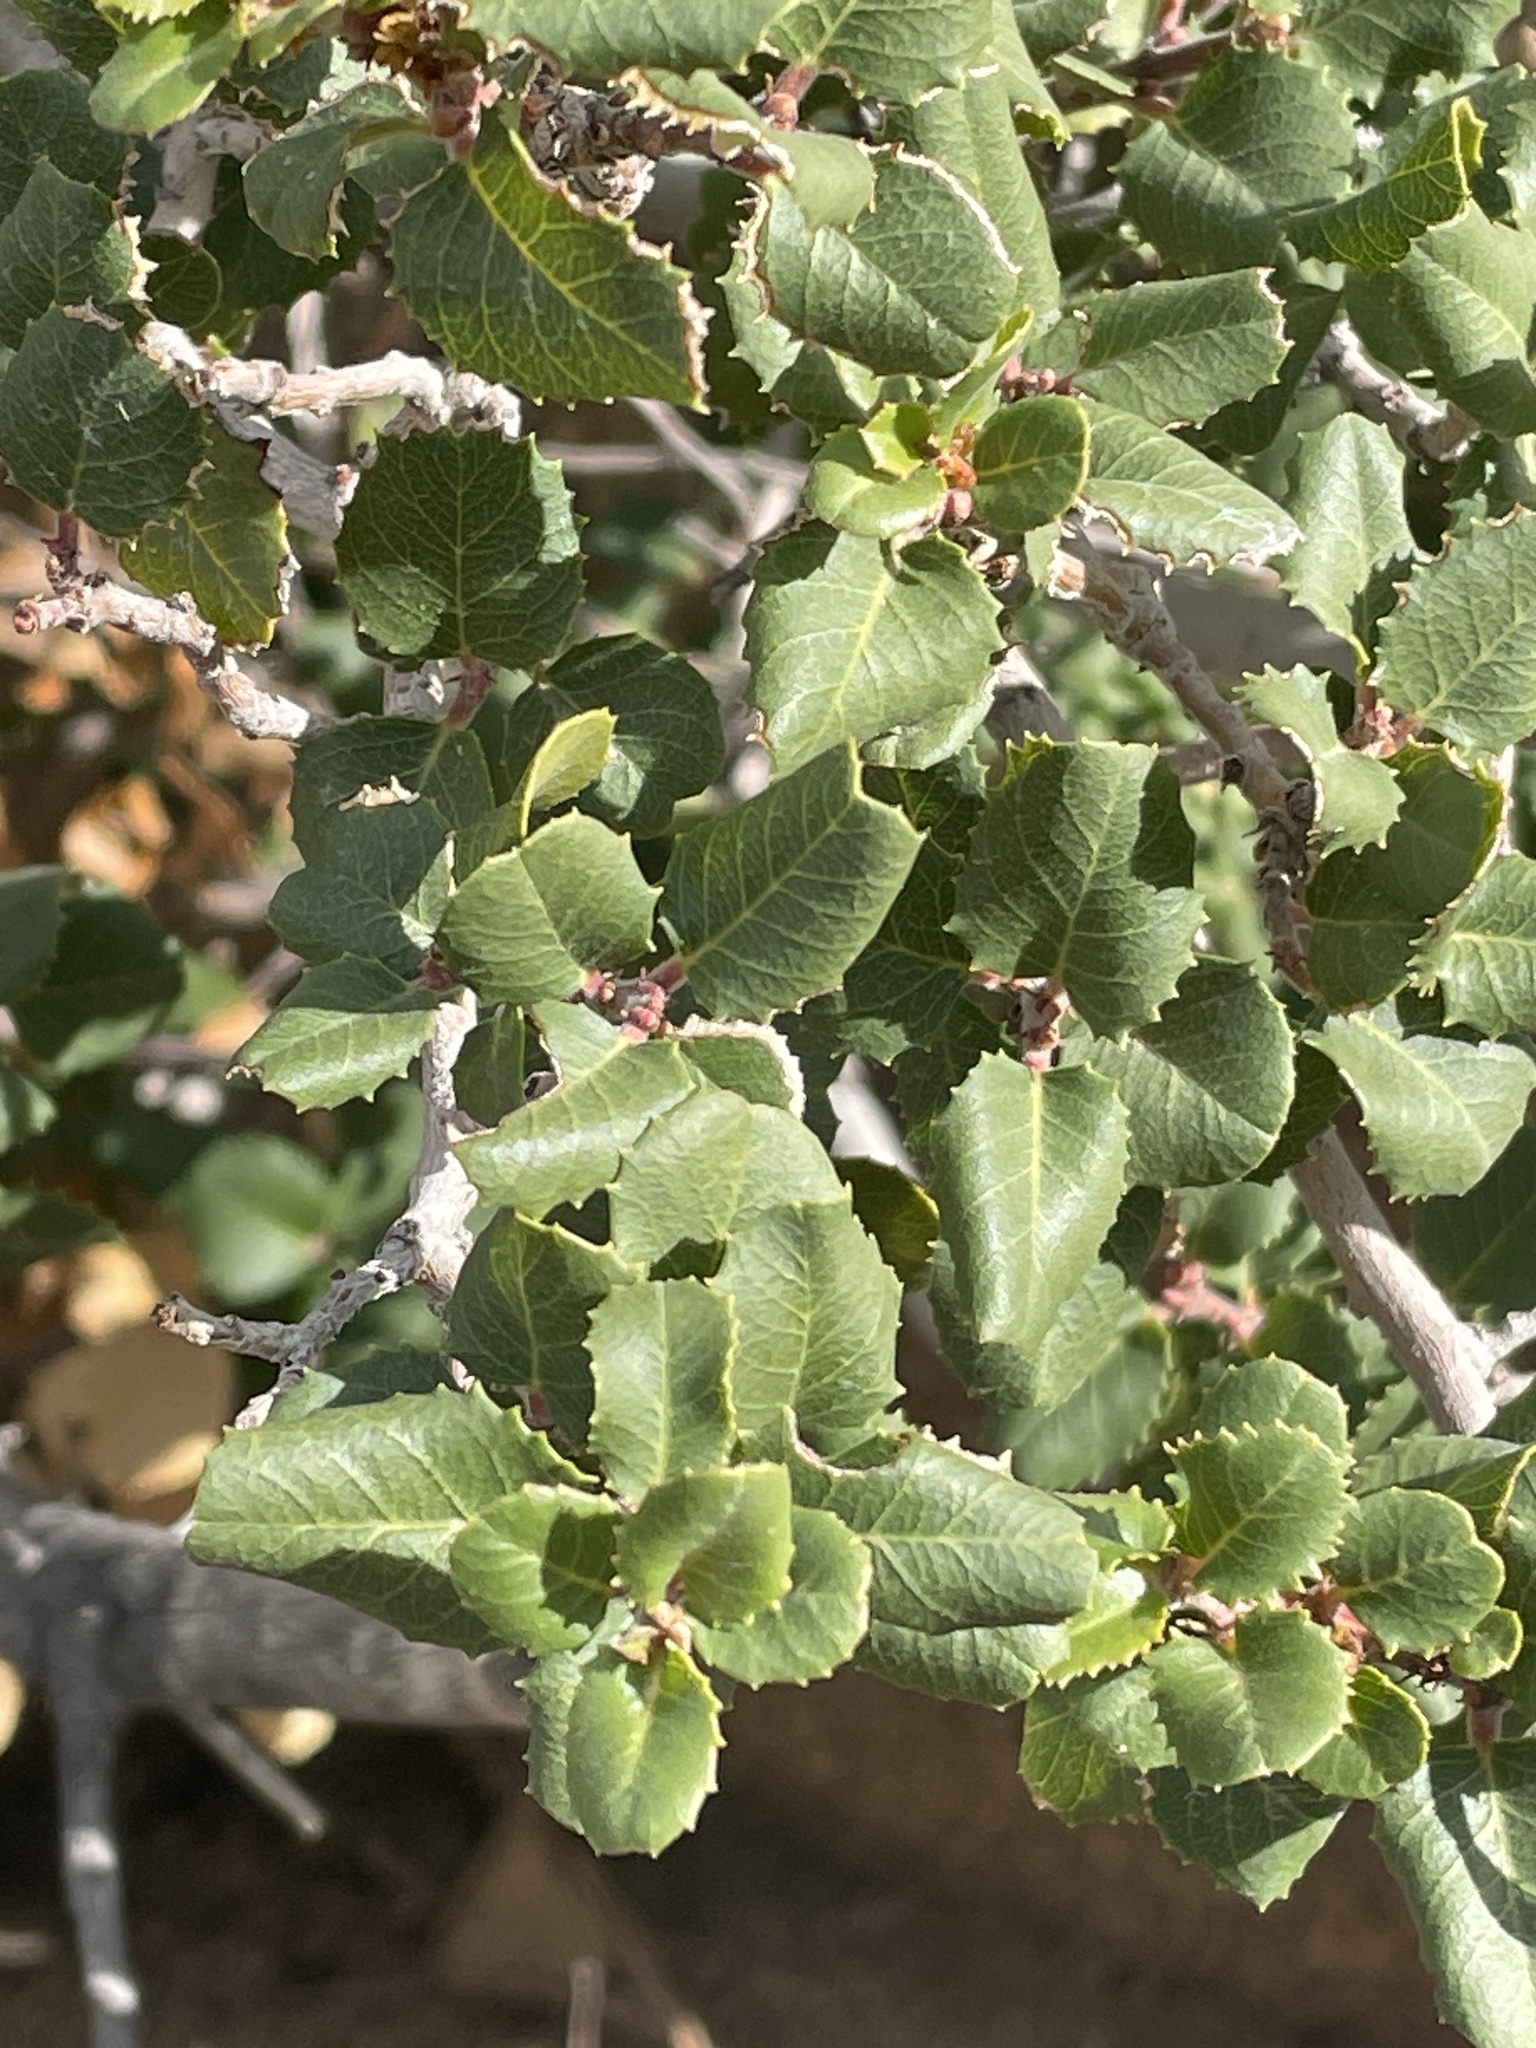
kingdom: Plantae
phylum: Tracheophyta
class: Magnoliopsida
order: Rosales
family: Rhamnaceae
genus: Endotropis
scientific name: Endotropis crocea
